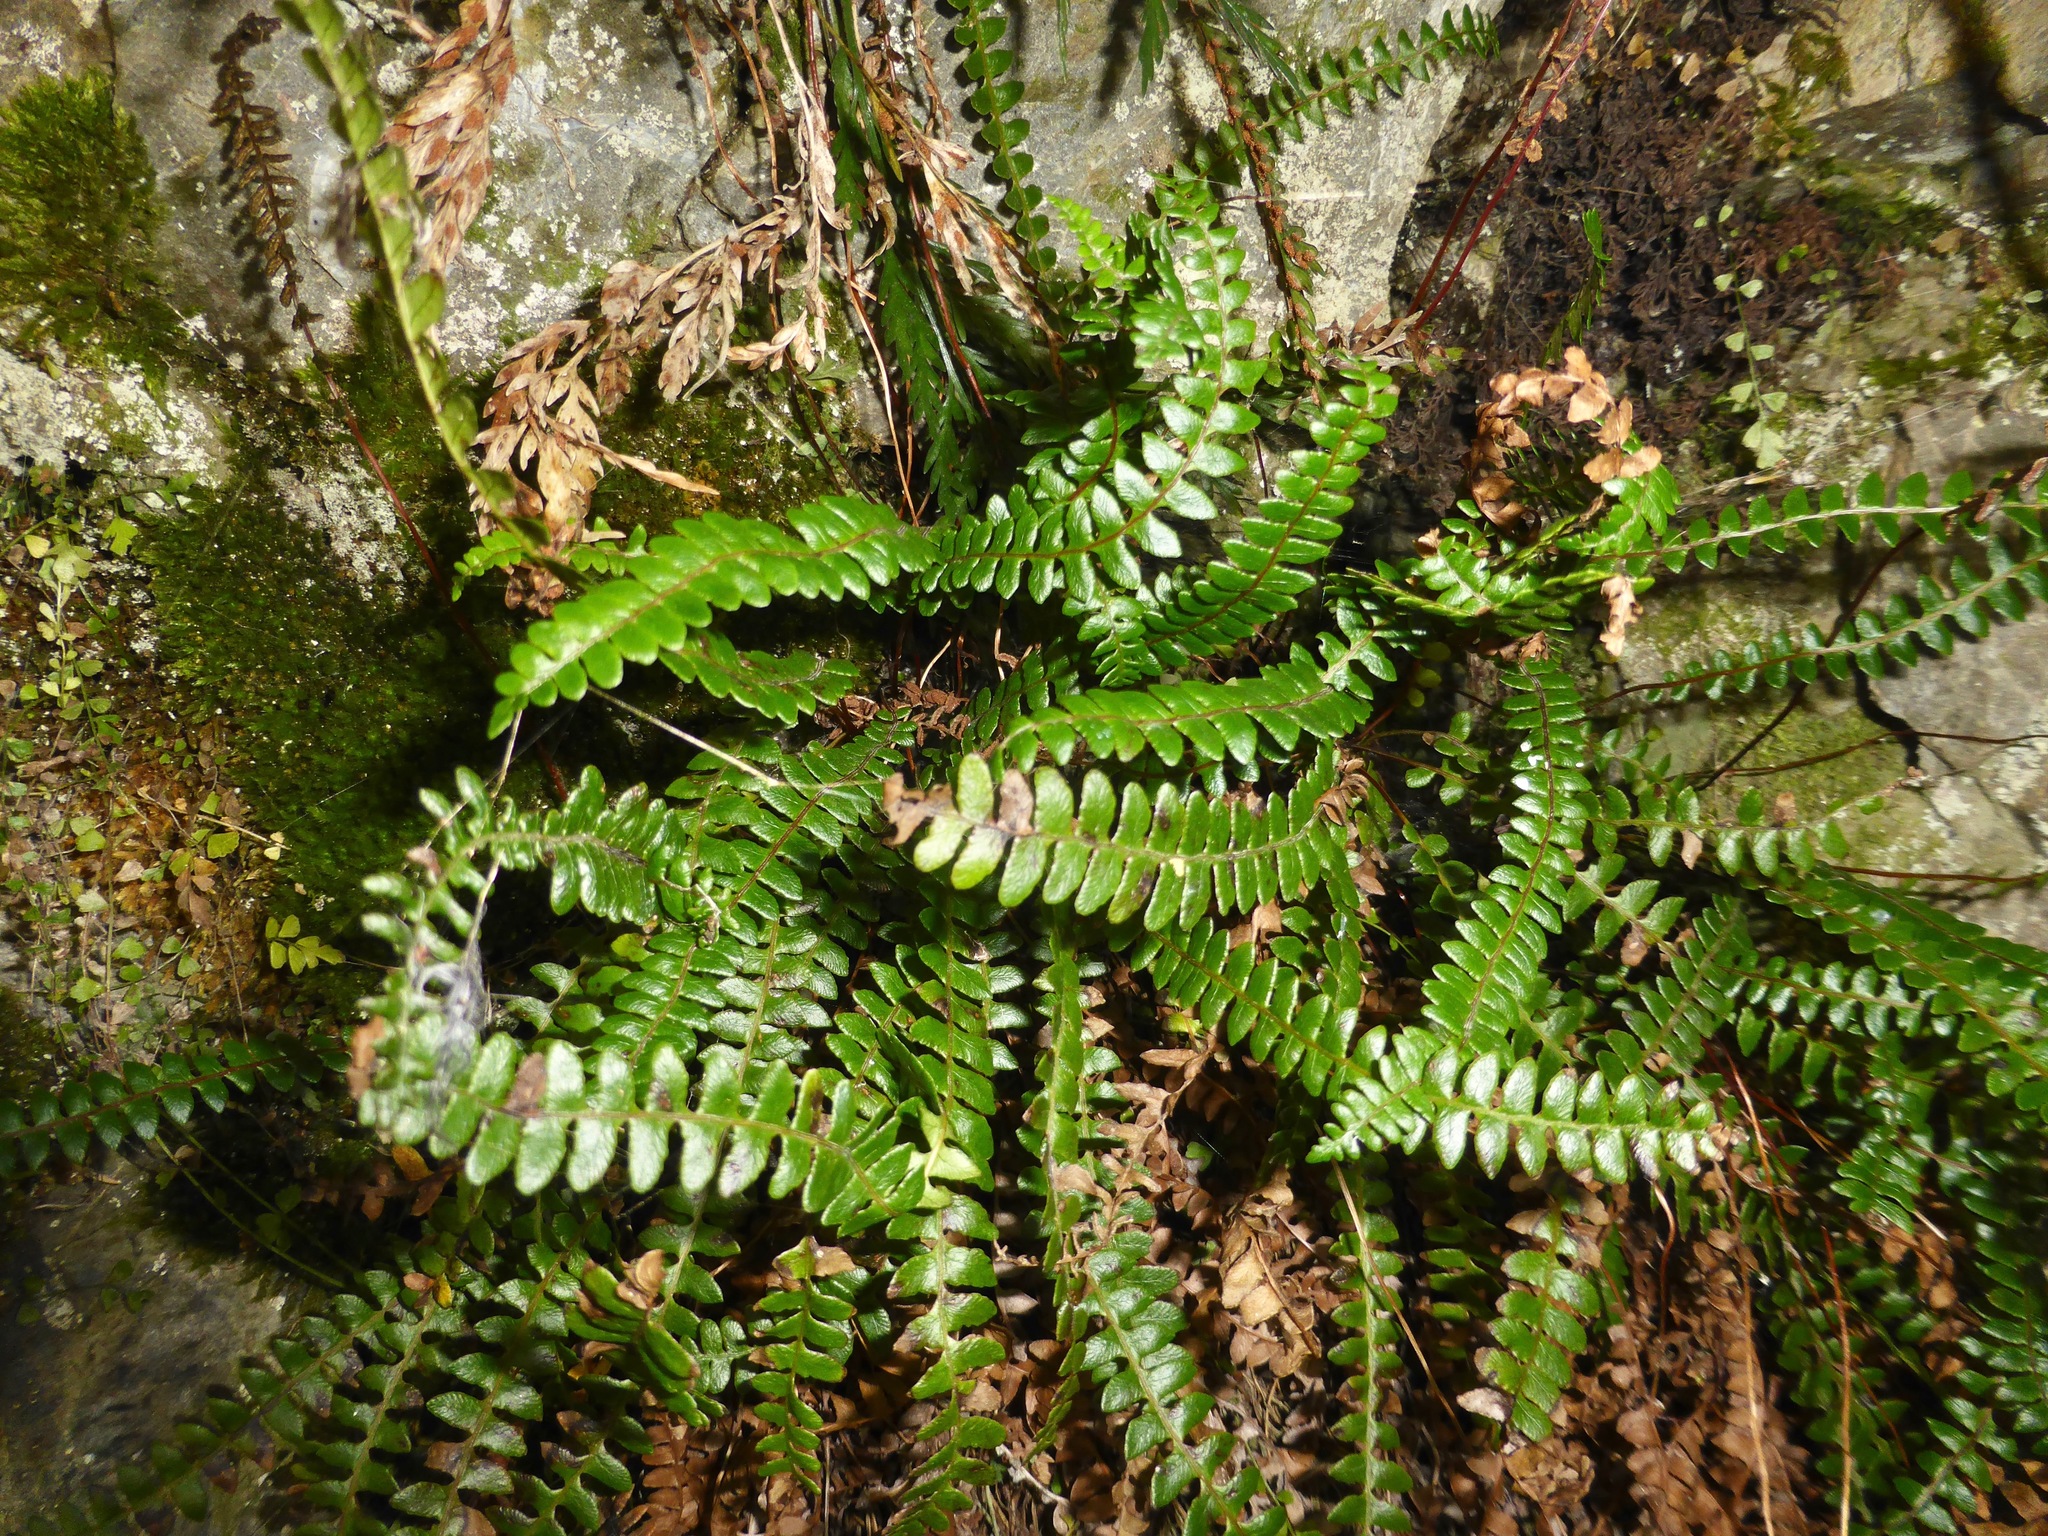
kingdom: Plantae
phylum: Tracheophyta
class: Polypodiopsida
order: Polypodiales
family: Blechnaceae
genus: Austroblechnum
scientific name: Austroblechnum penna-marina
